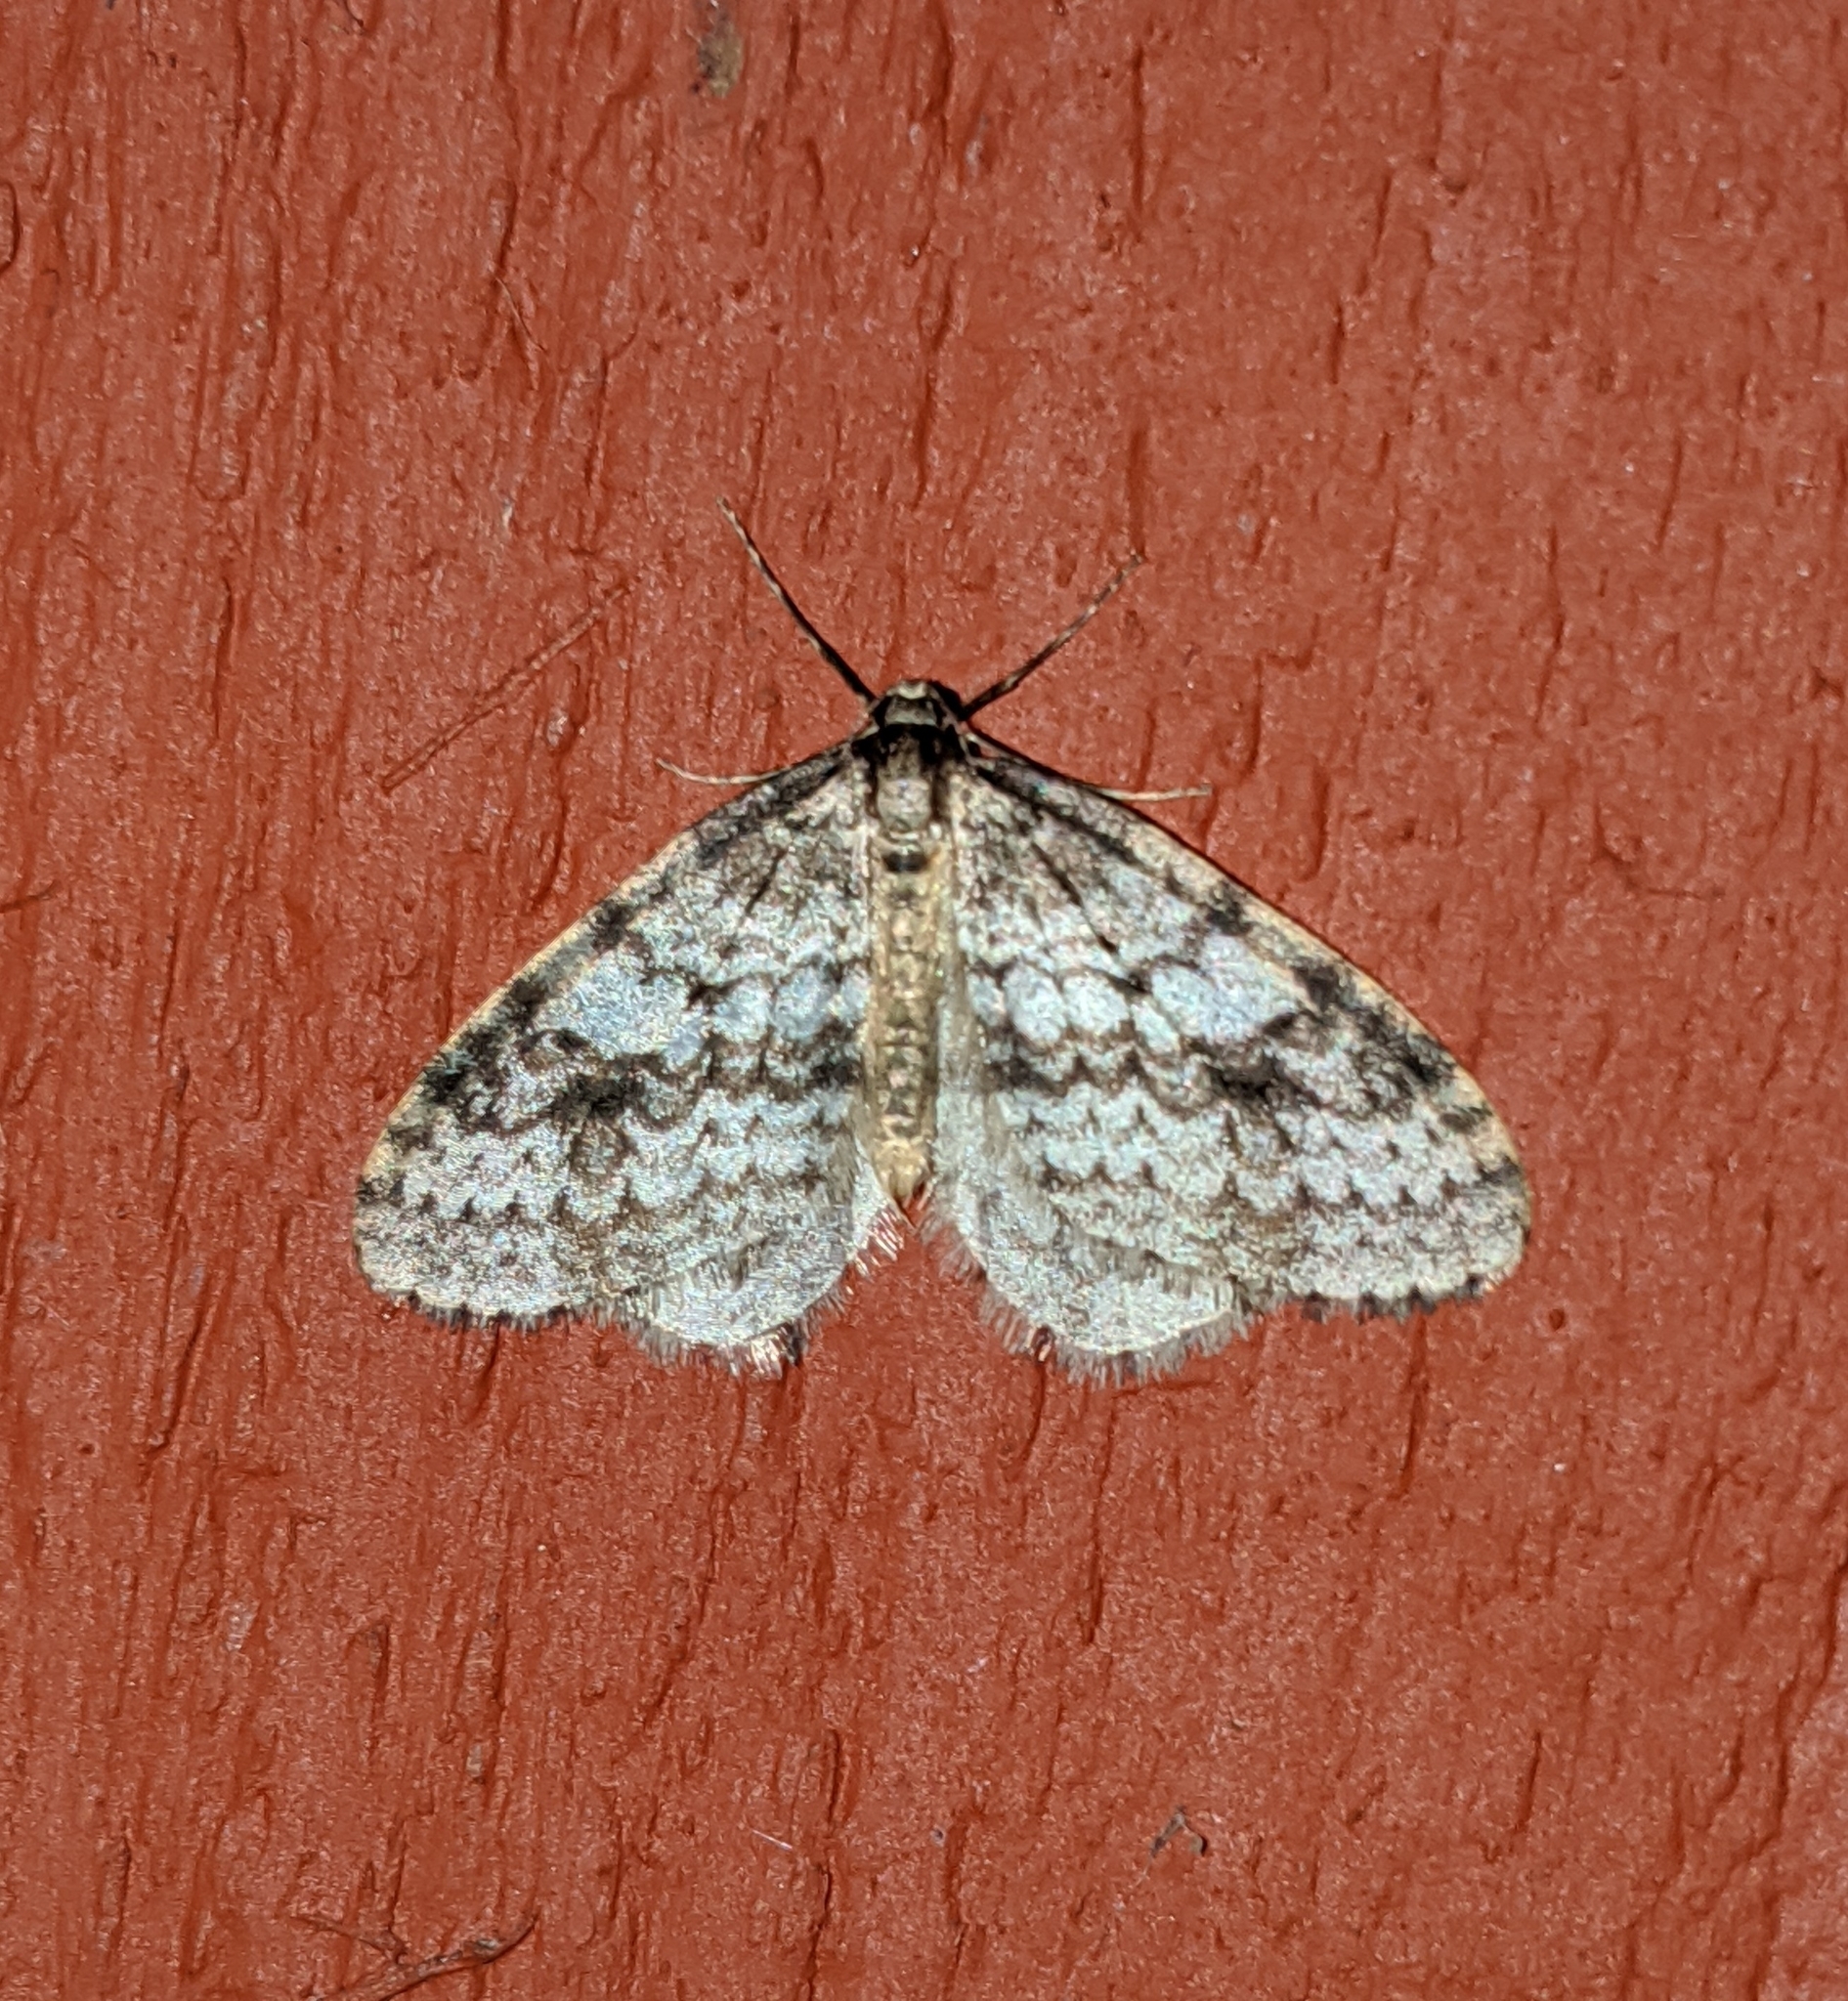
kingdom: Animalia
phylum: Arthropoda
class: Insecta
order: Lepidoptera
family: Geometridae
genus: Operophtera
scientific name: Operophtera occidentalis
